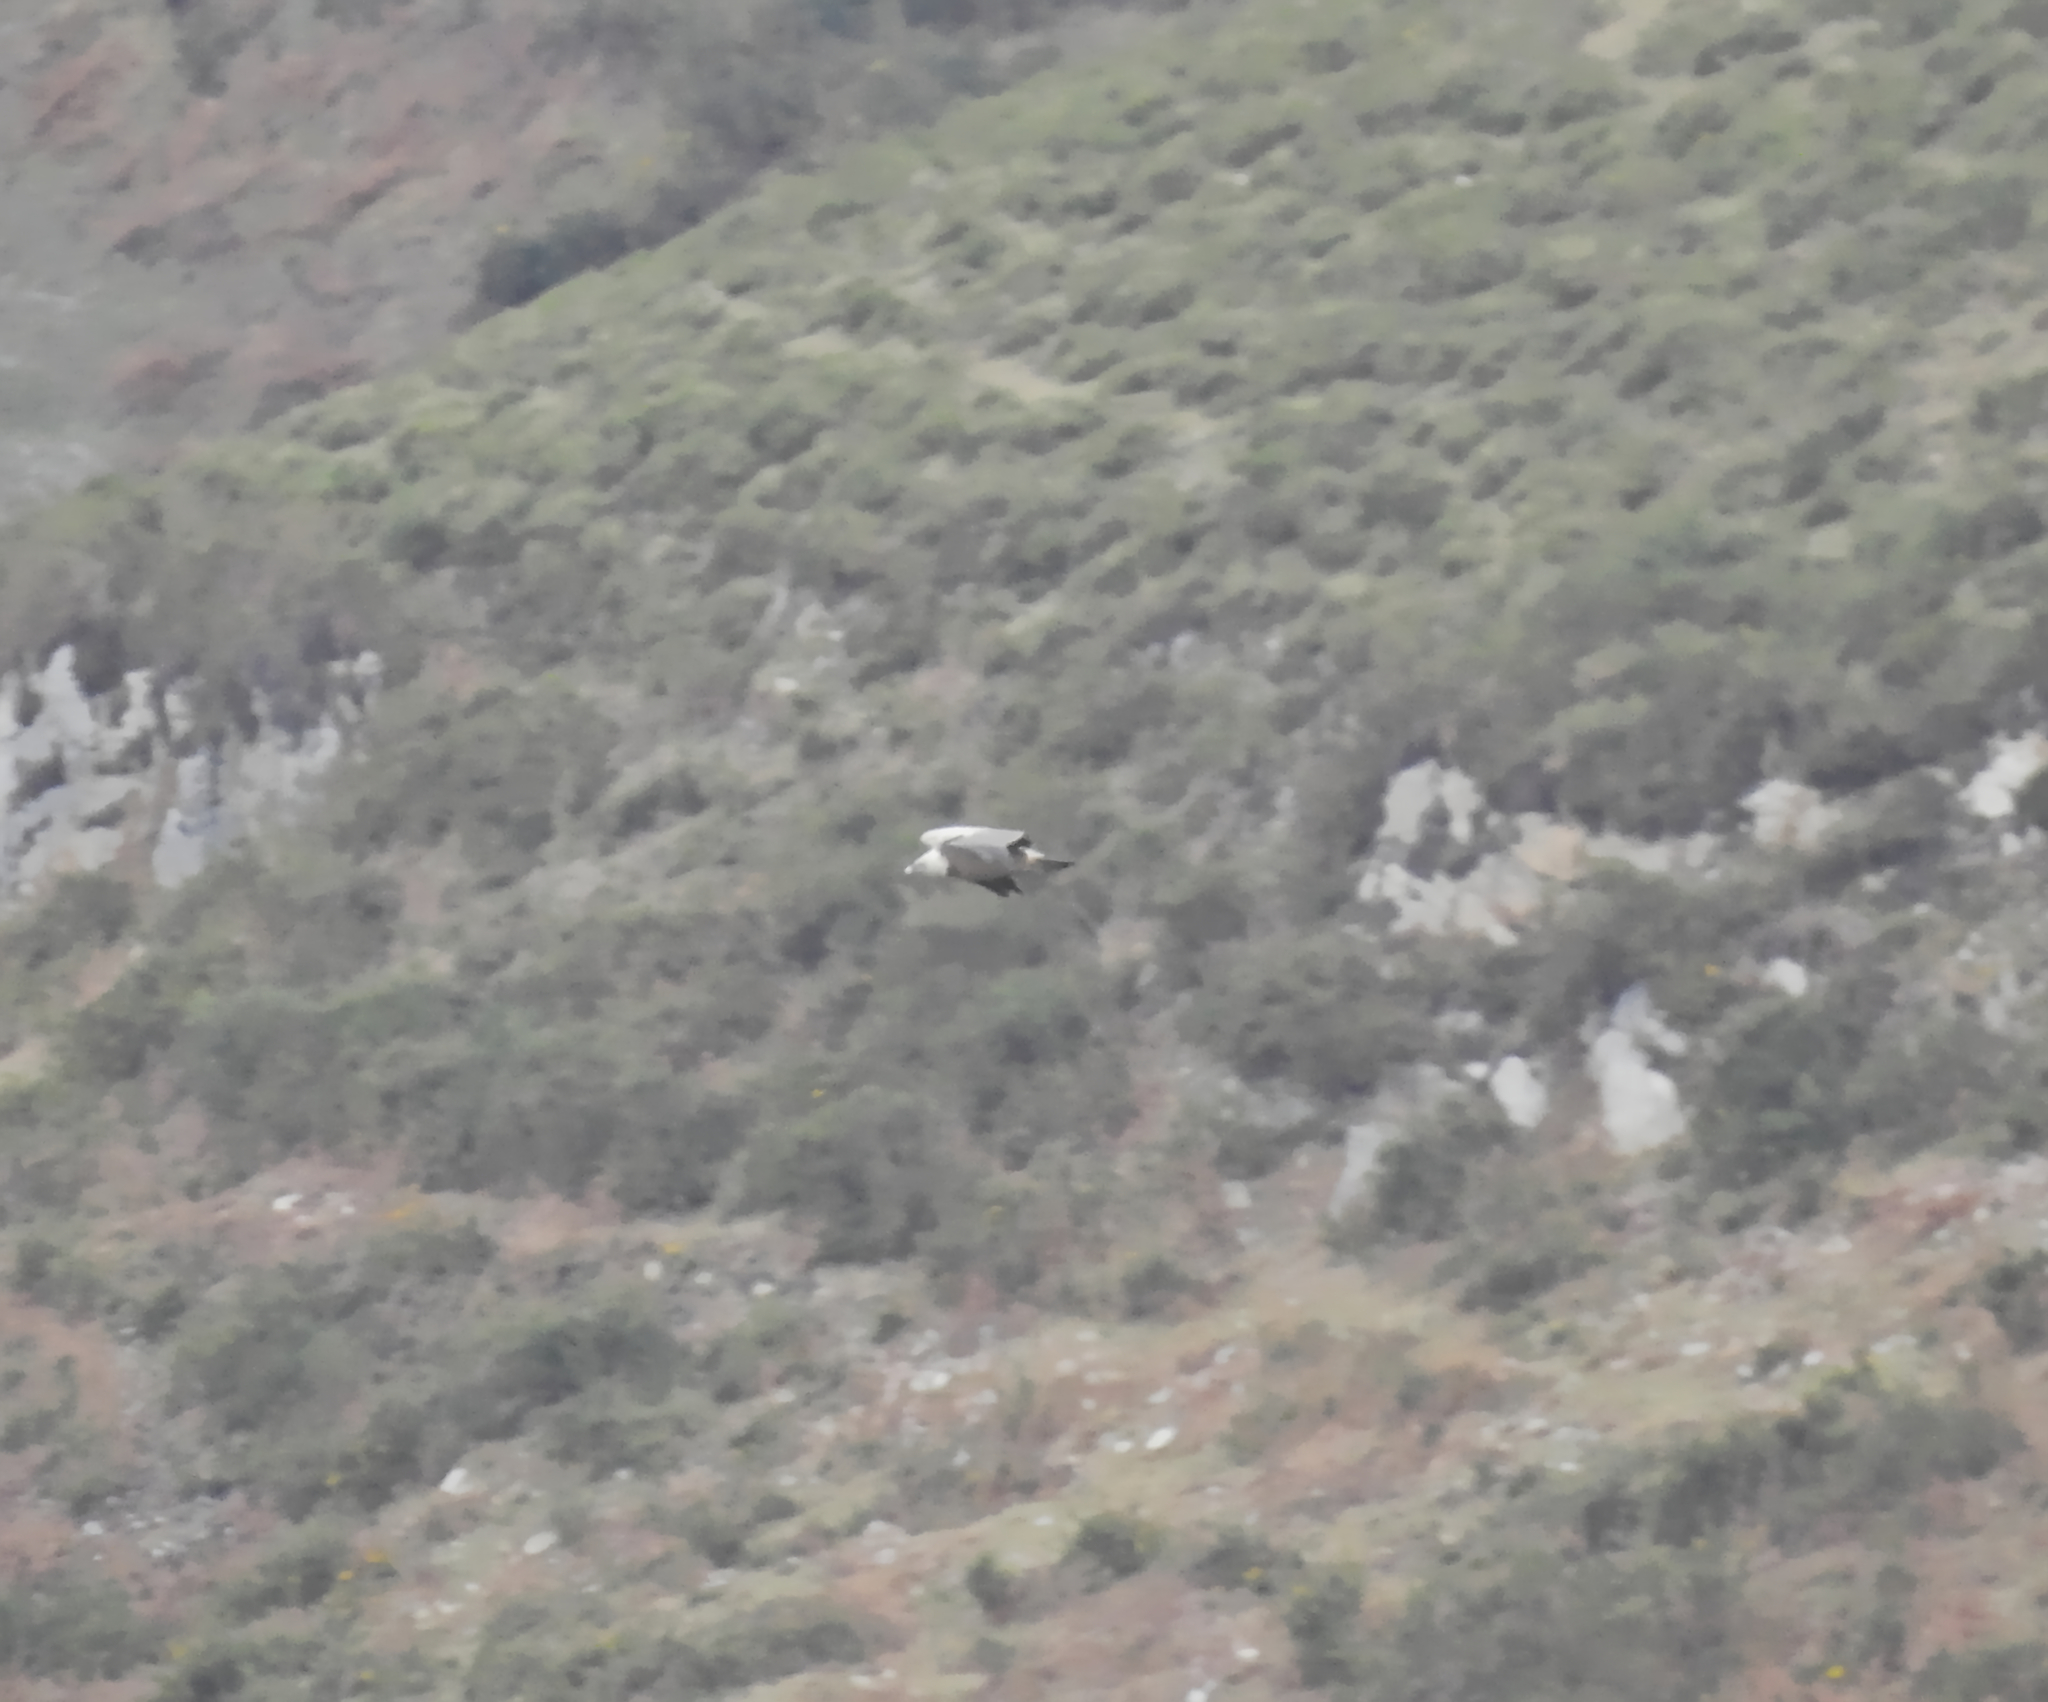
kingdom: Animalia
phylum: Chordata
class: Aves
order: Accipitriformes
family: Accipitridae
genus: Gyps
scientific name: Gyps fulvus
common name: Griffon vulture
